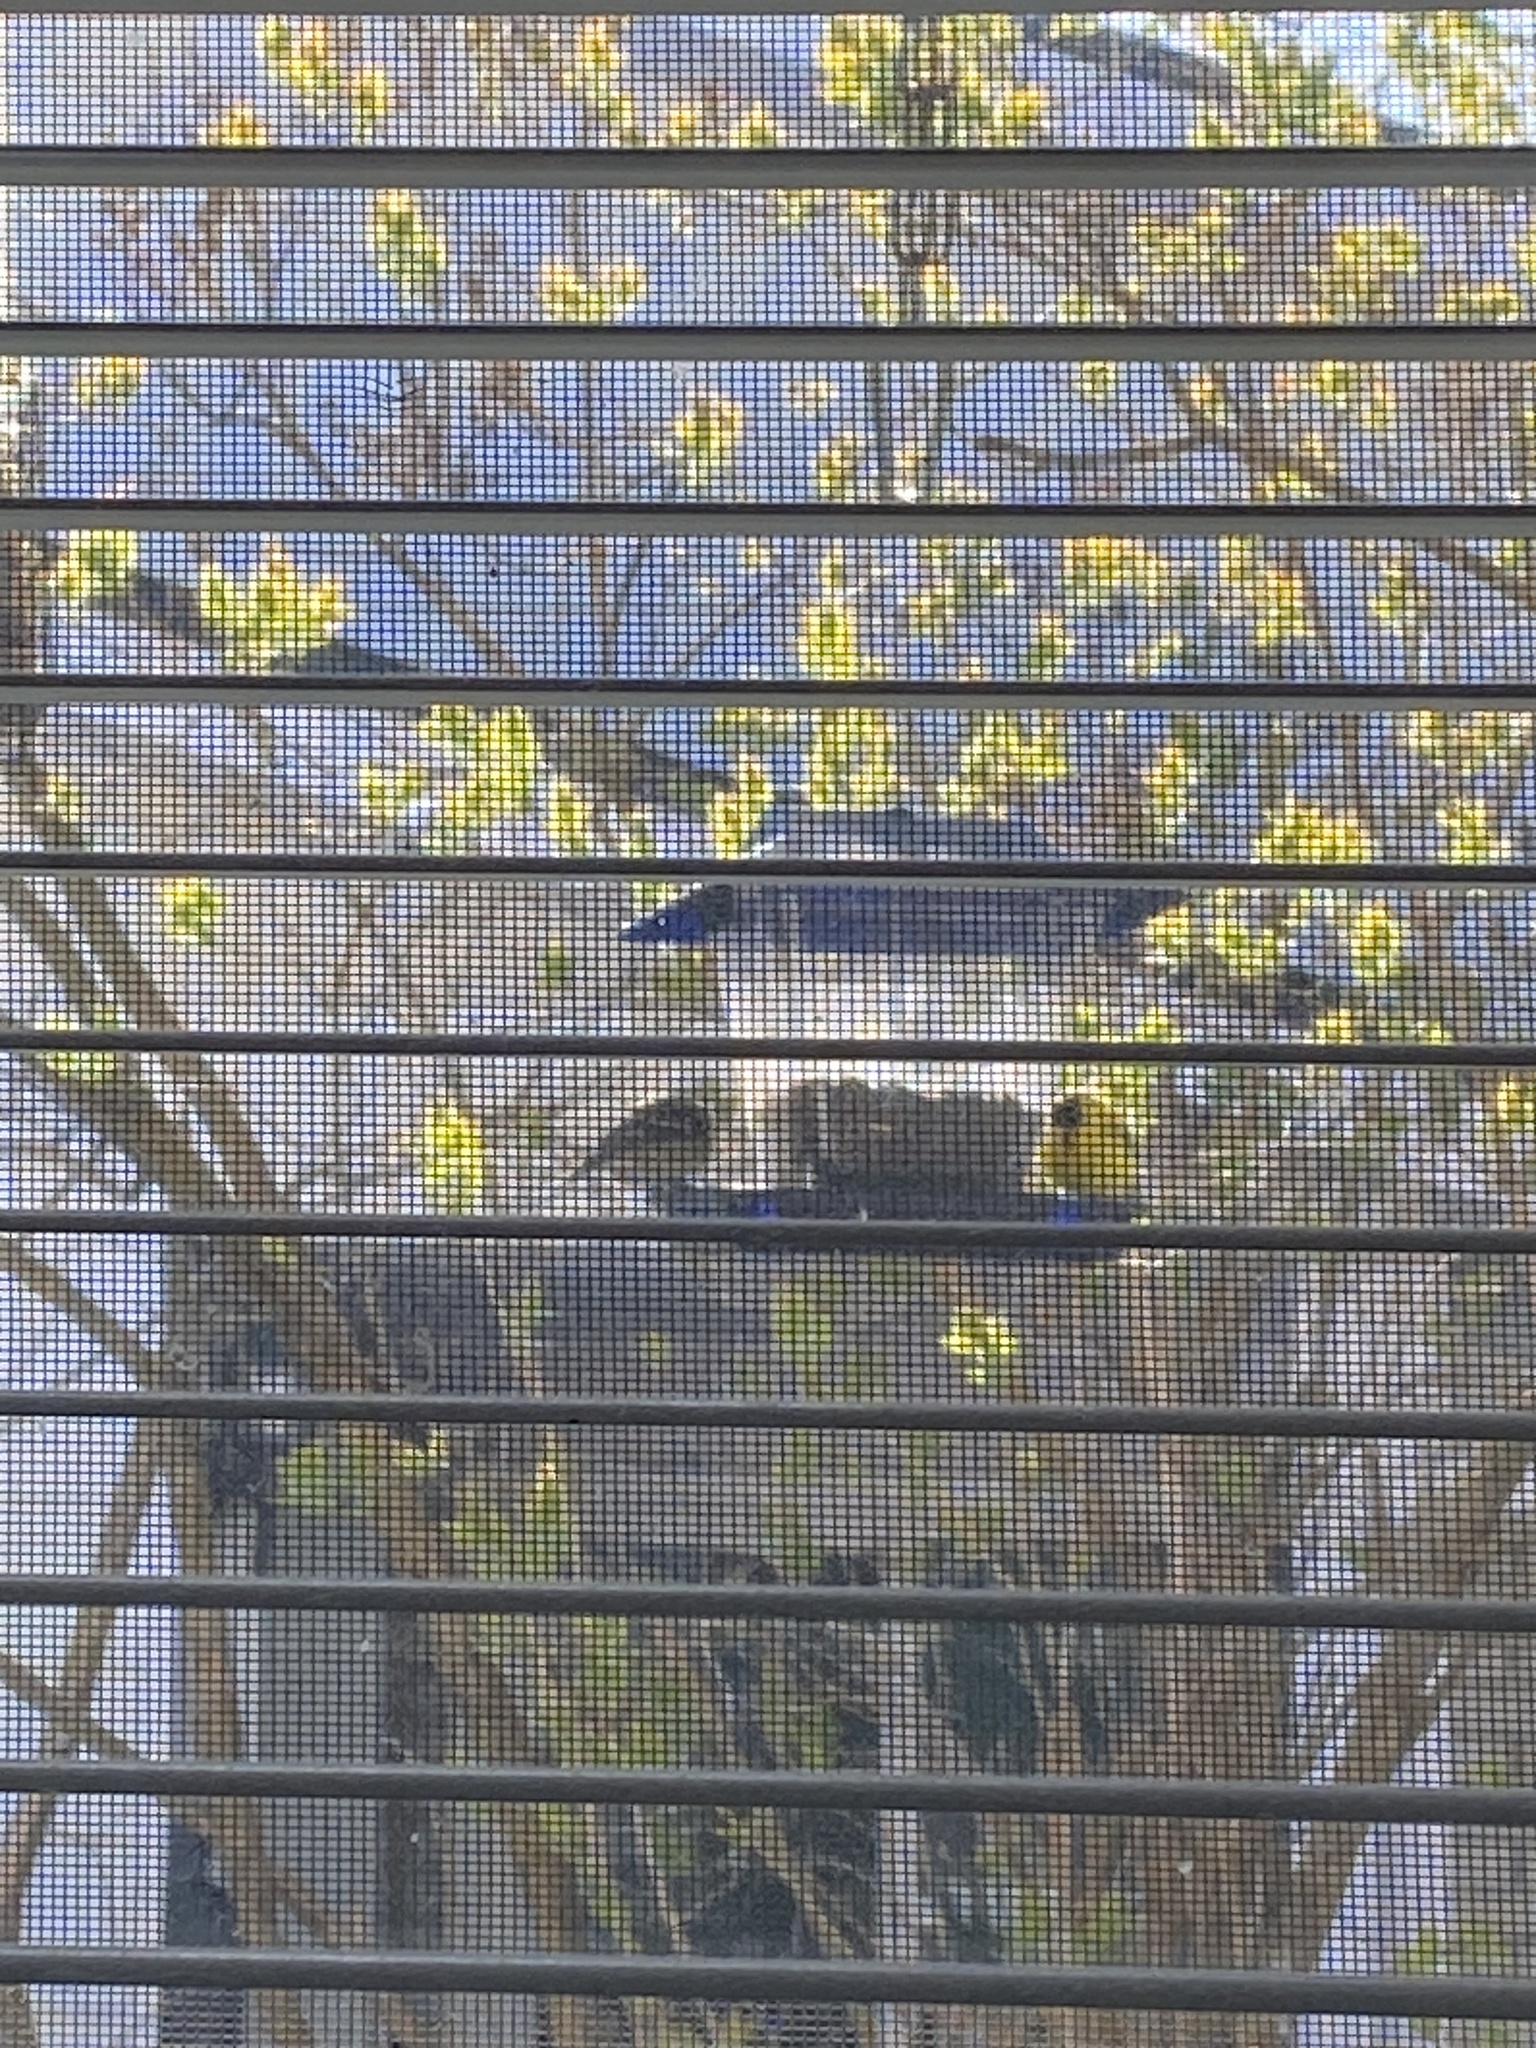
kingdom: Animalia
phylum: Chordata
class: Aves
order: Passeriformes
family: Fringillidae
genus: Spinus
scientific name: Spinus tristis
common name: American goldfinch
